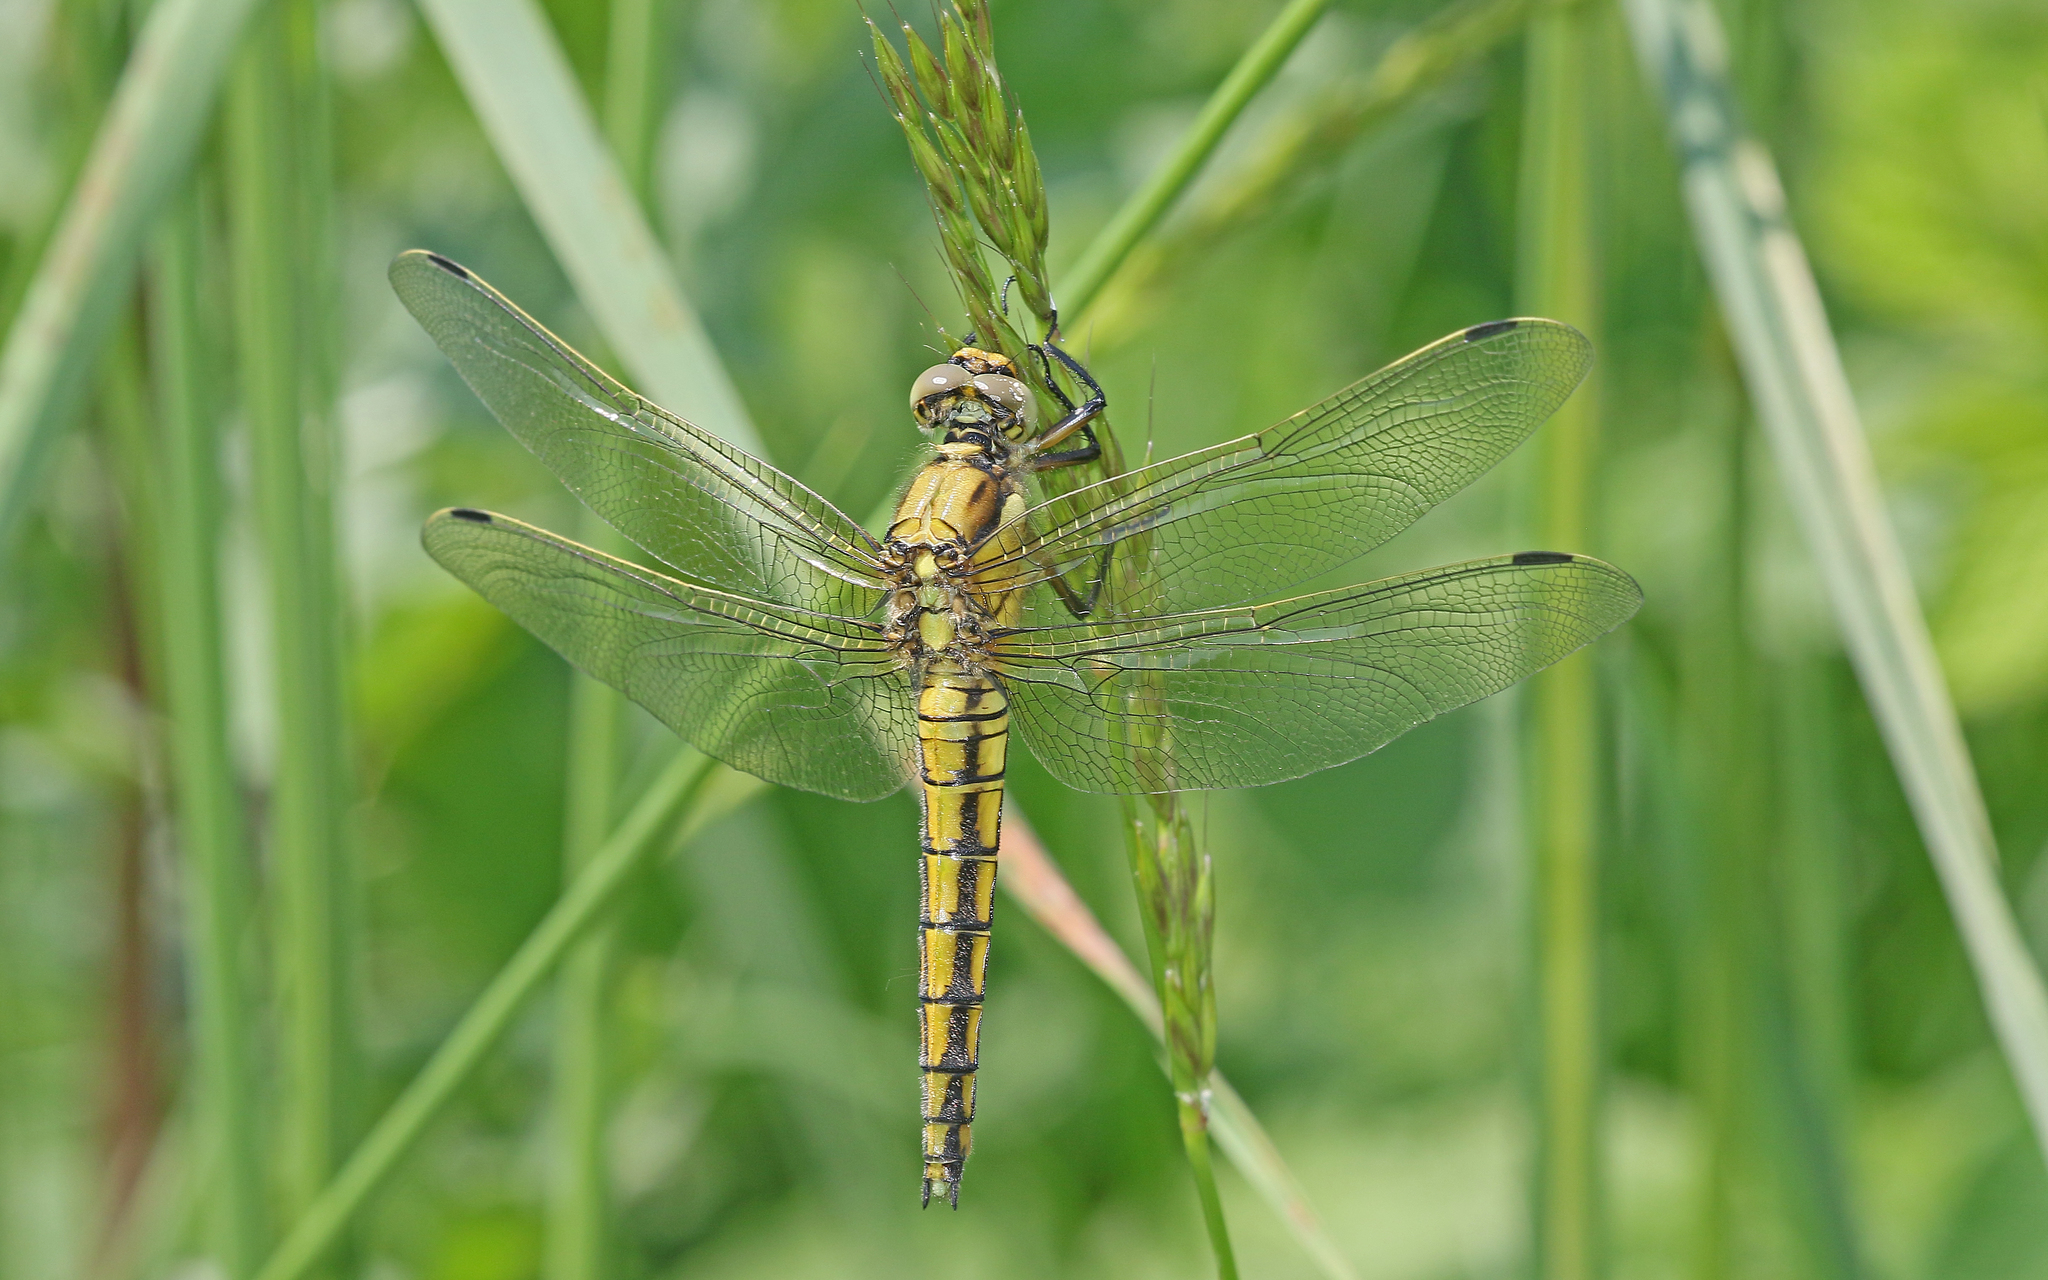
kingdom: Animalia
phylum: Arthropoda
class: Insecta
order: Odonata
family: Libellulidae
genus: Orthetrum
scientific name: Orthetrum cancellatum
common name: Black-tailed skimmer
